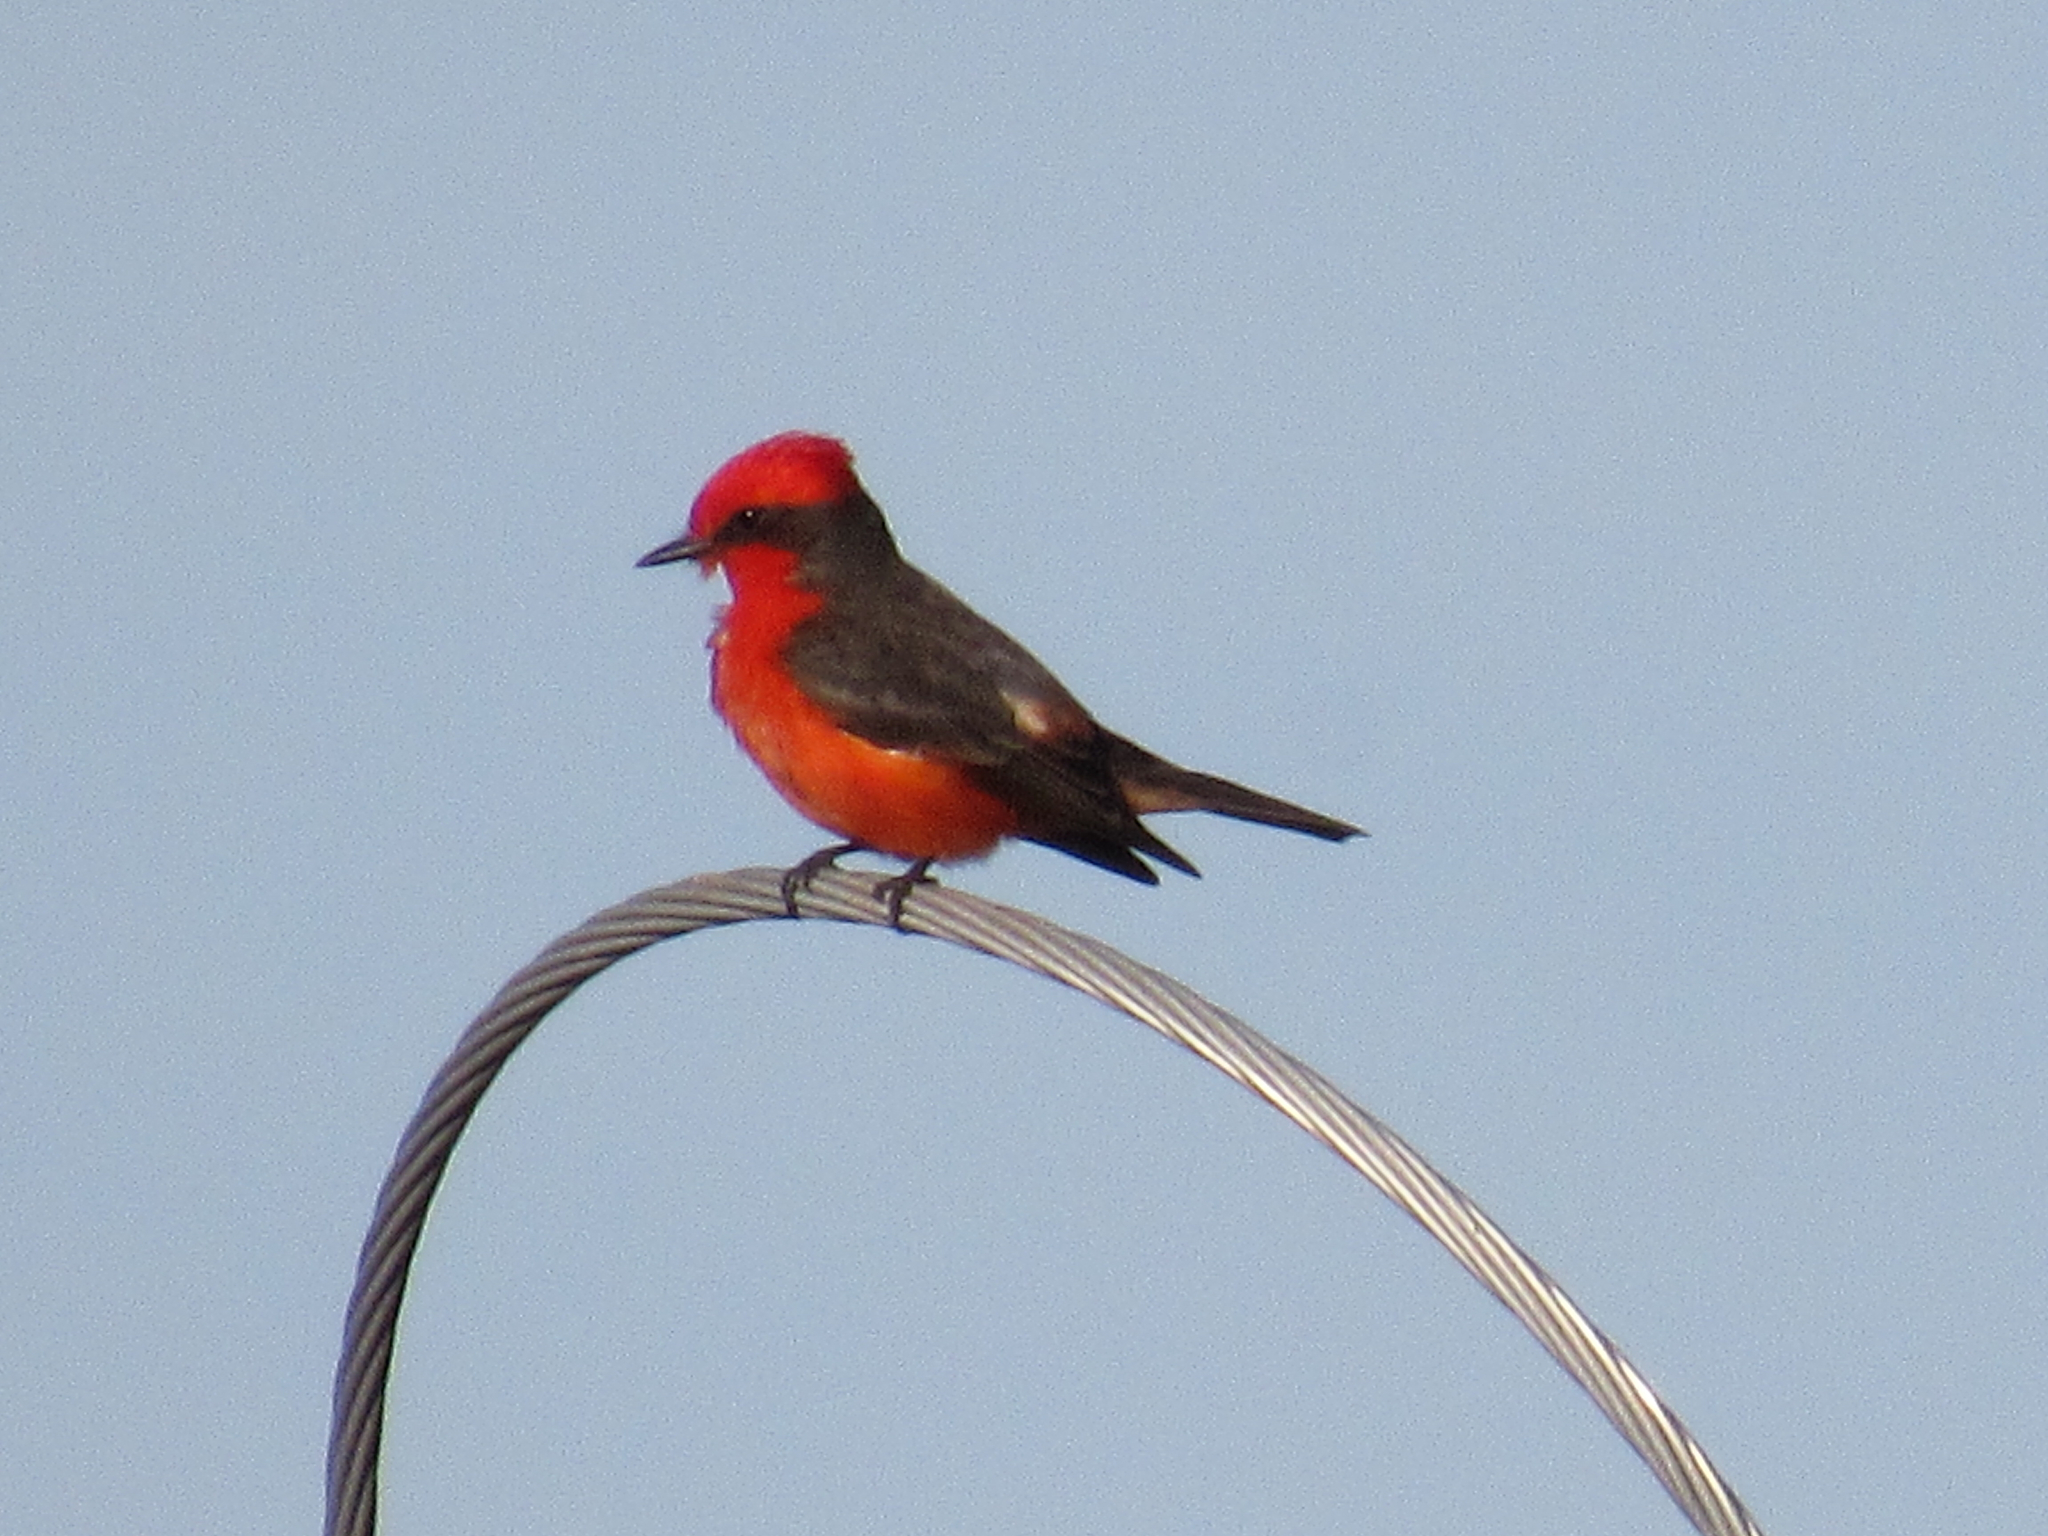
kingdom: Animalia
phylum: Chordata
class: Aves
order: Passeriformes
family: Tyrannidae
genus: Pyrocephalus
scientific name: Pyrocephalus rubinus
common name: Vermilion flycatcher
